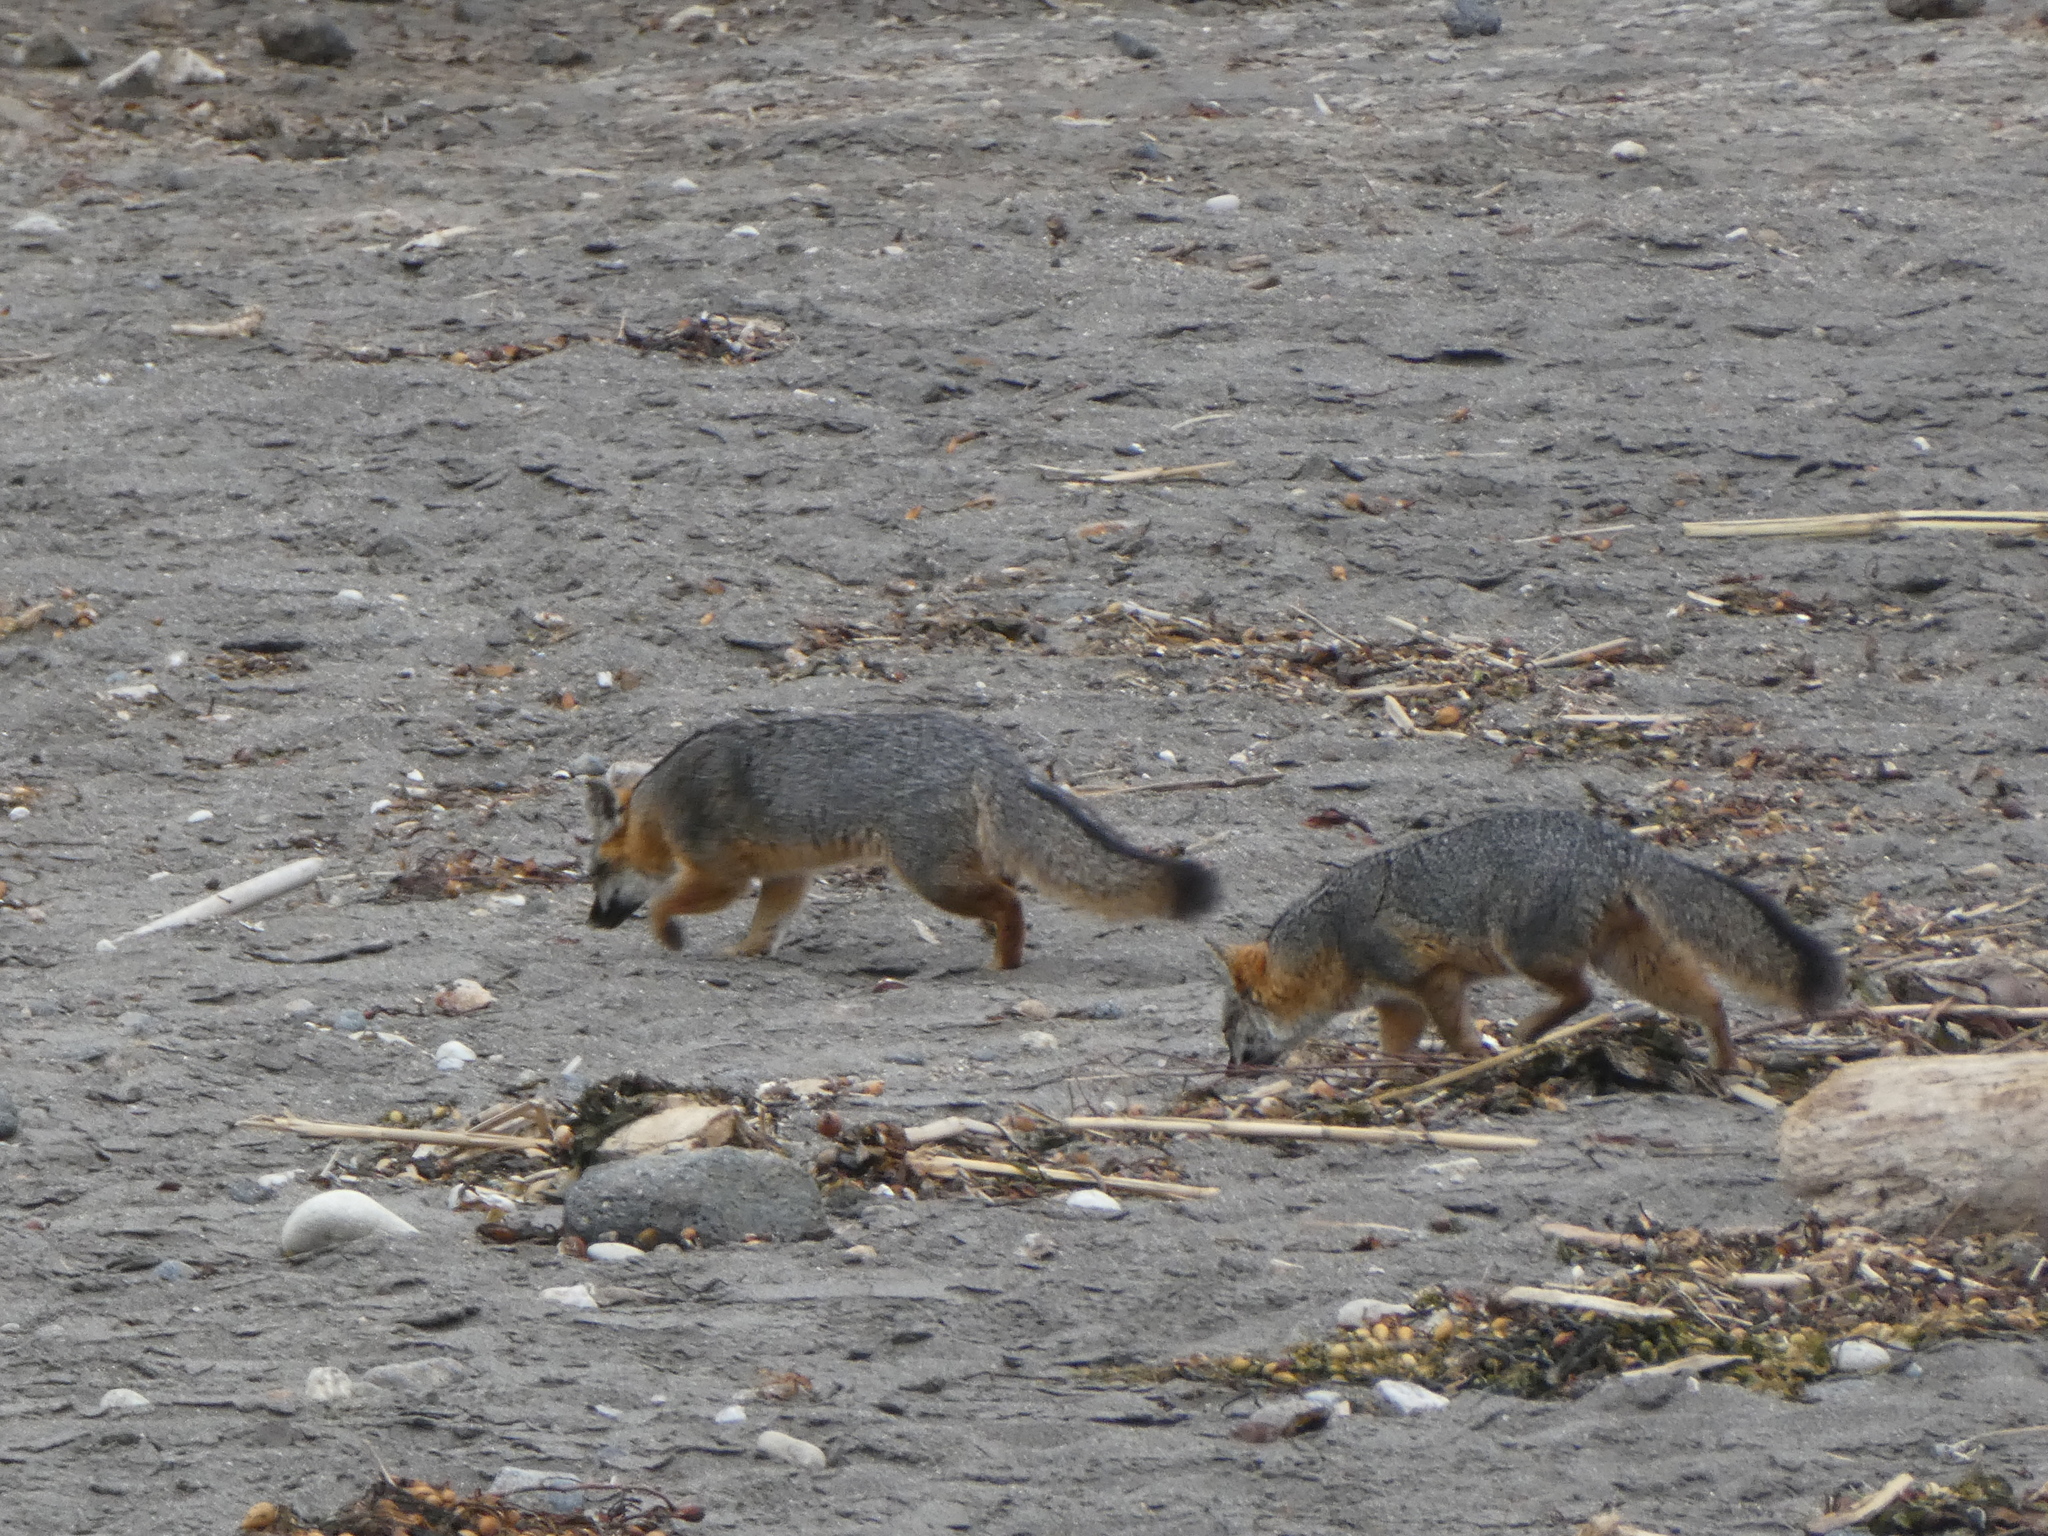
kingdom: Animalia
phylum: Chordata
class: Mammalia
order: Carnivora
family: Canidae
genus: Urocyon
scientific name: Urocyon littoralis
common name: Island gray fox
